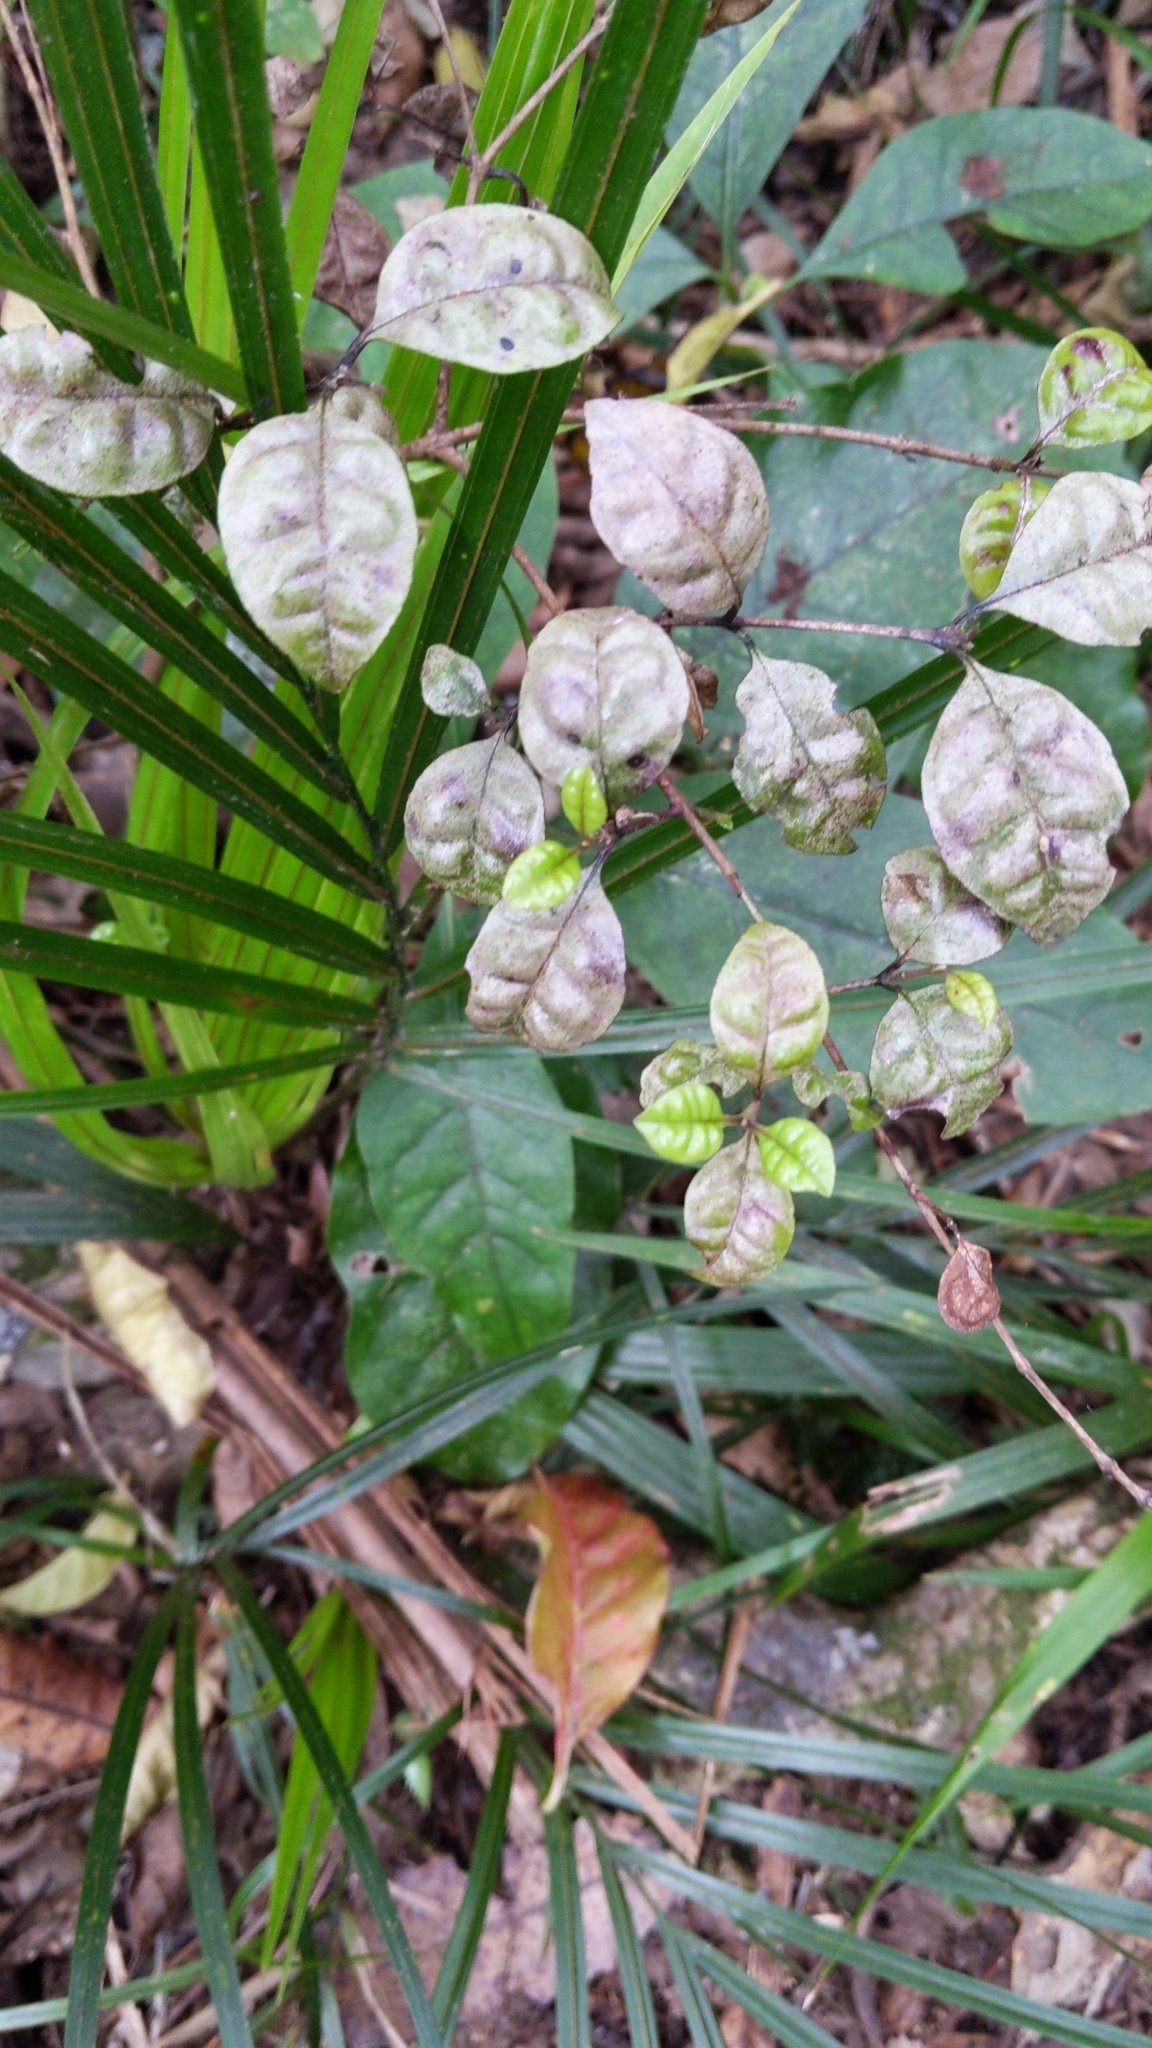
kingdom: Plantae
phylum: Tracheophyta
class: Magnoliopsida
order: Myrtales
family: Myrtaceae
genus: Lophomyrtus
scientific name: Lophomyrtus bullata
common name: Rama rama
